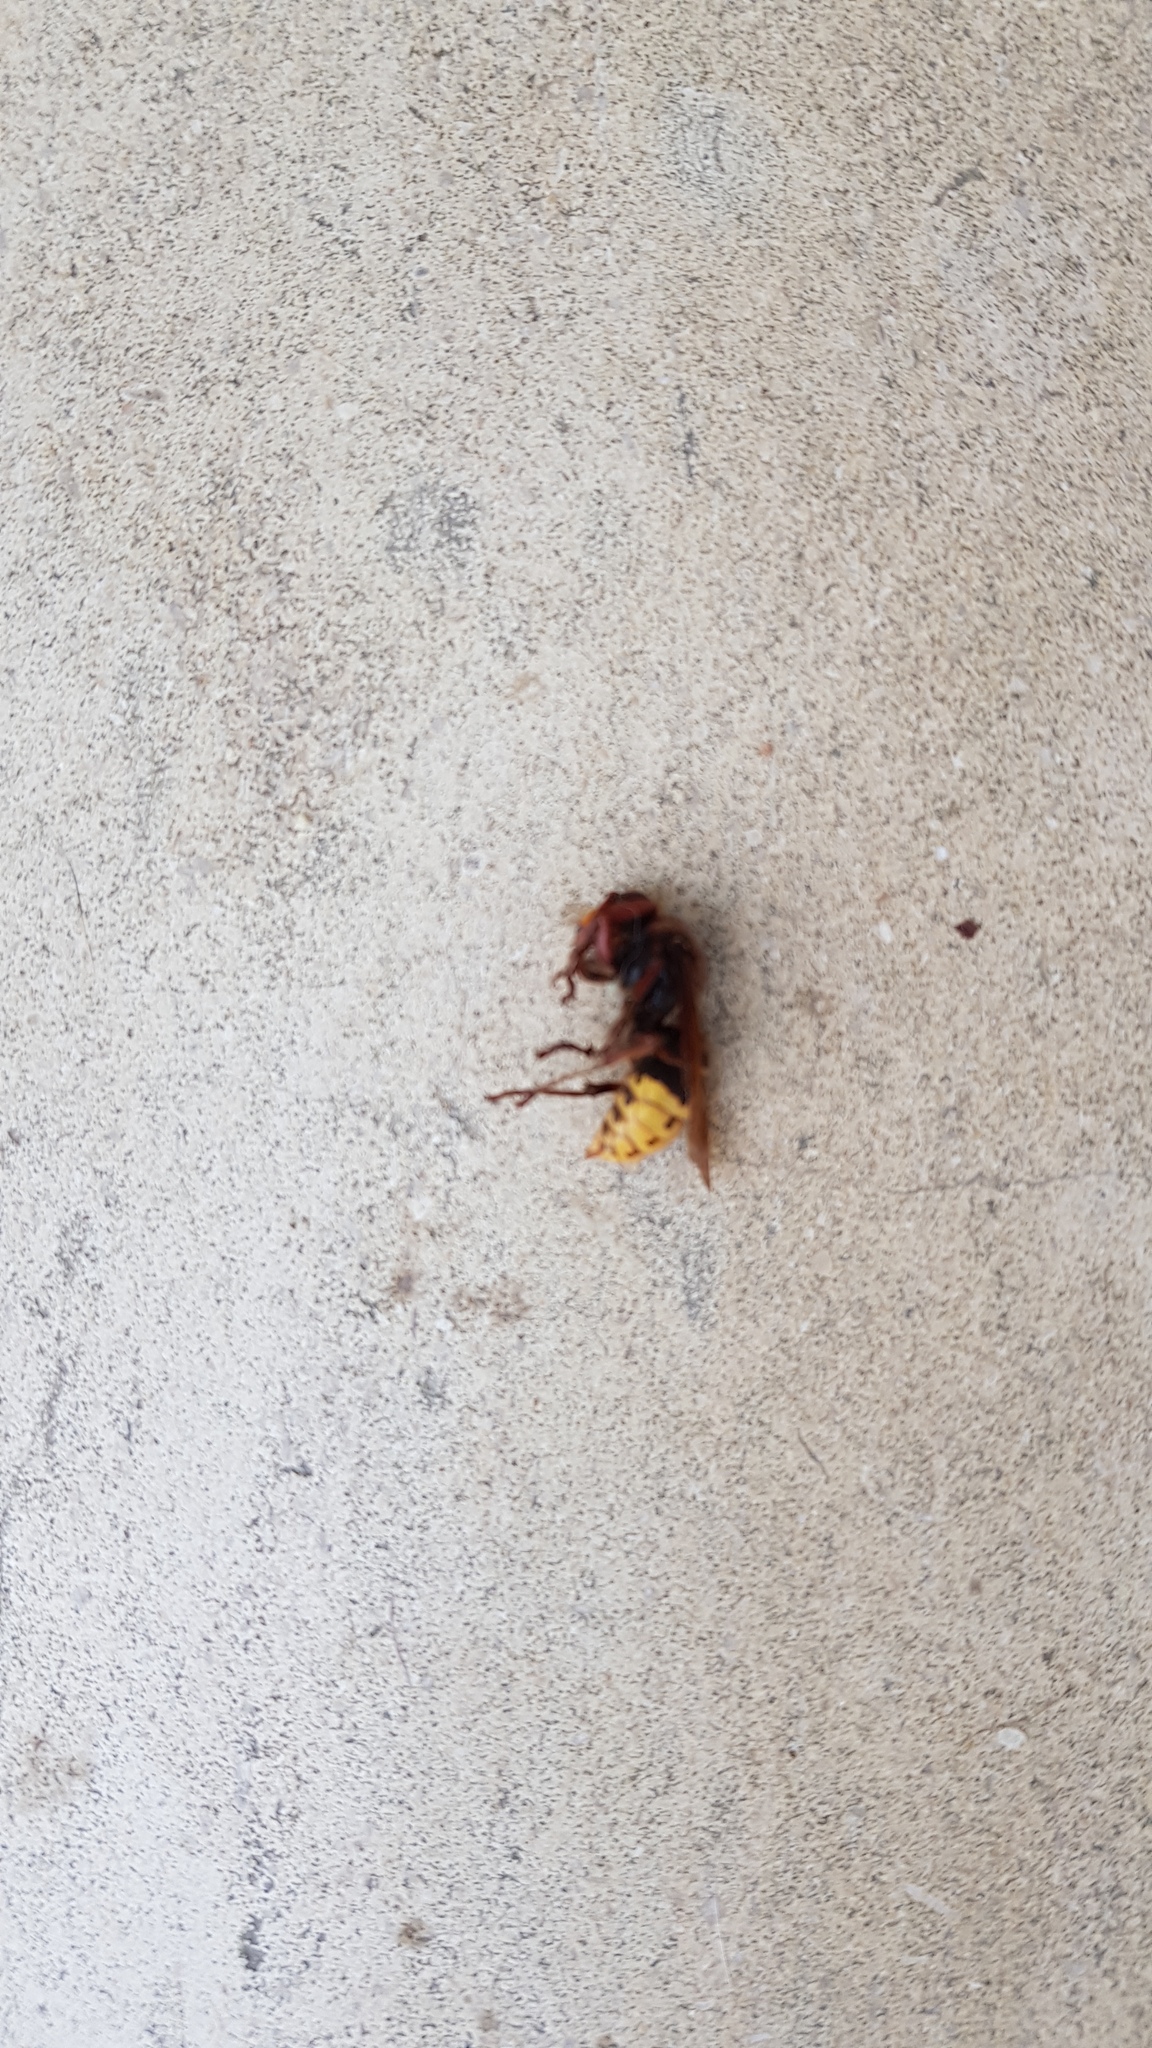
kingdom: Animalia
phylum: Arthropoda
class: Insecta
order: Hymenoptera
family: Vespidae
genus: Vespa
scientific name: Vespa crabro
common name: Hornet
